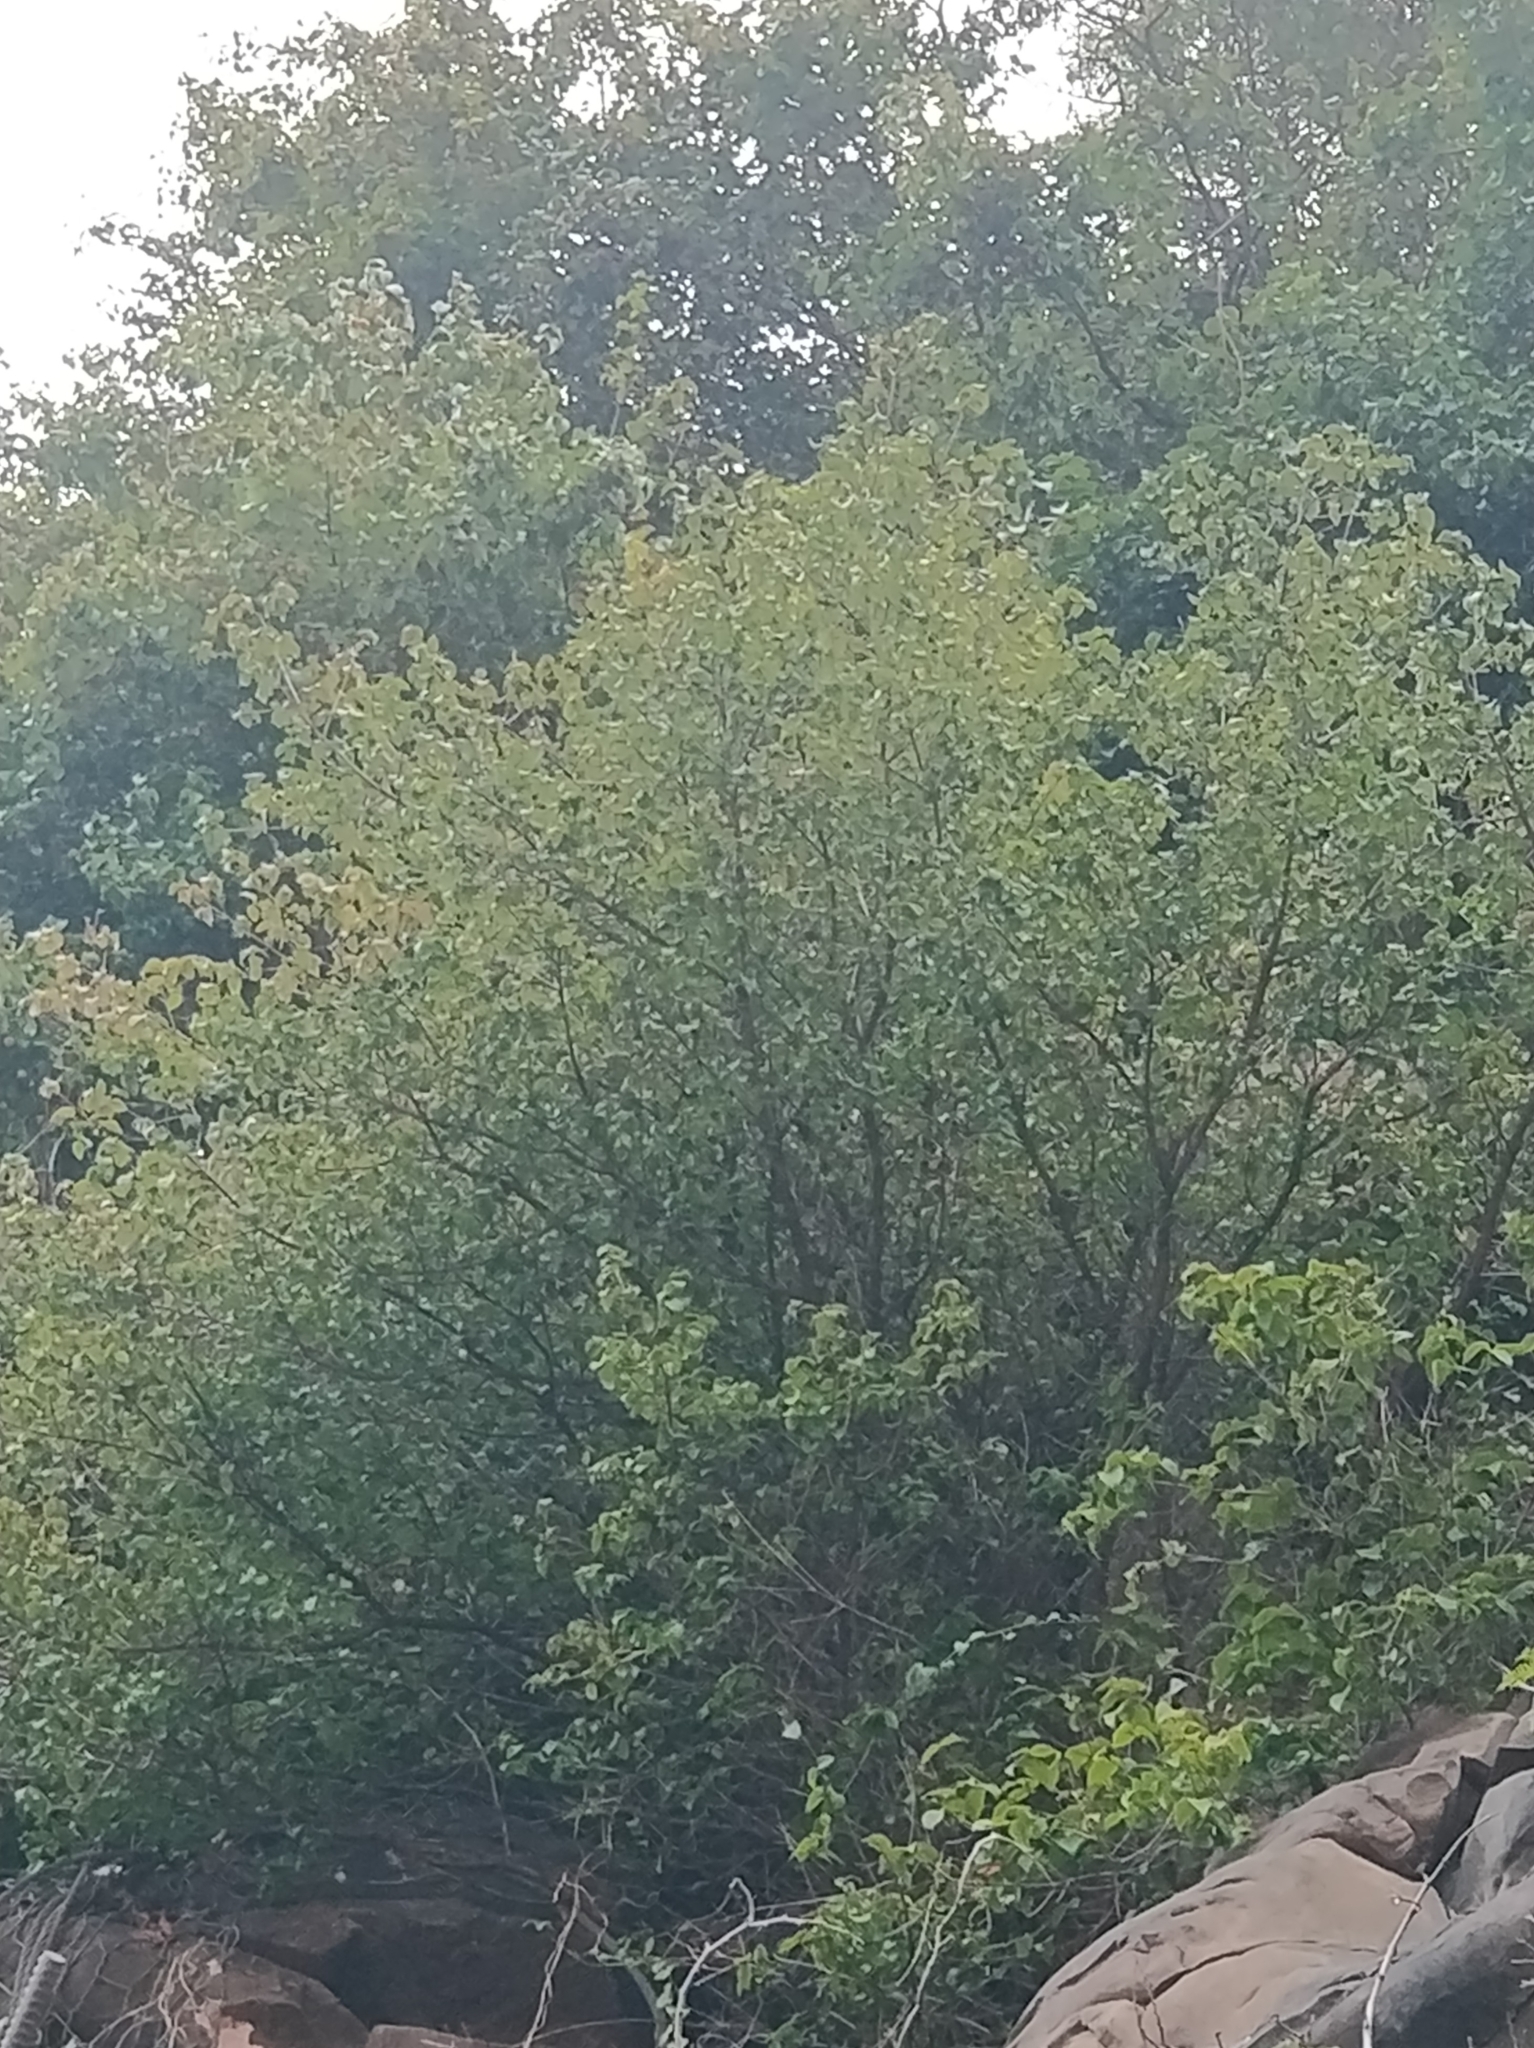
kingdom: Plantae
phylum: Tracheophyta
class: Magnoliopsida
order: Myrtales
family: Myrtaceae
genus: Eugenia
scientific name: Eugenia uniflora
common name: Surinam cherry
